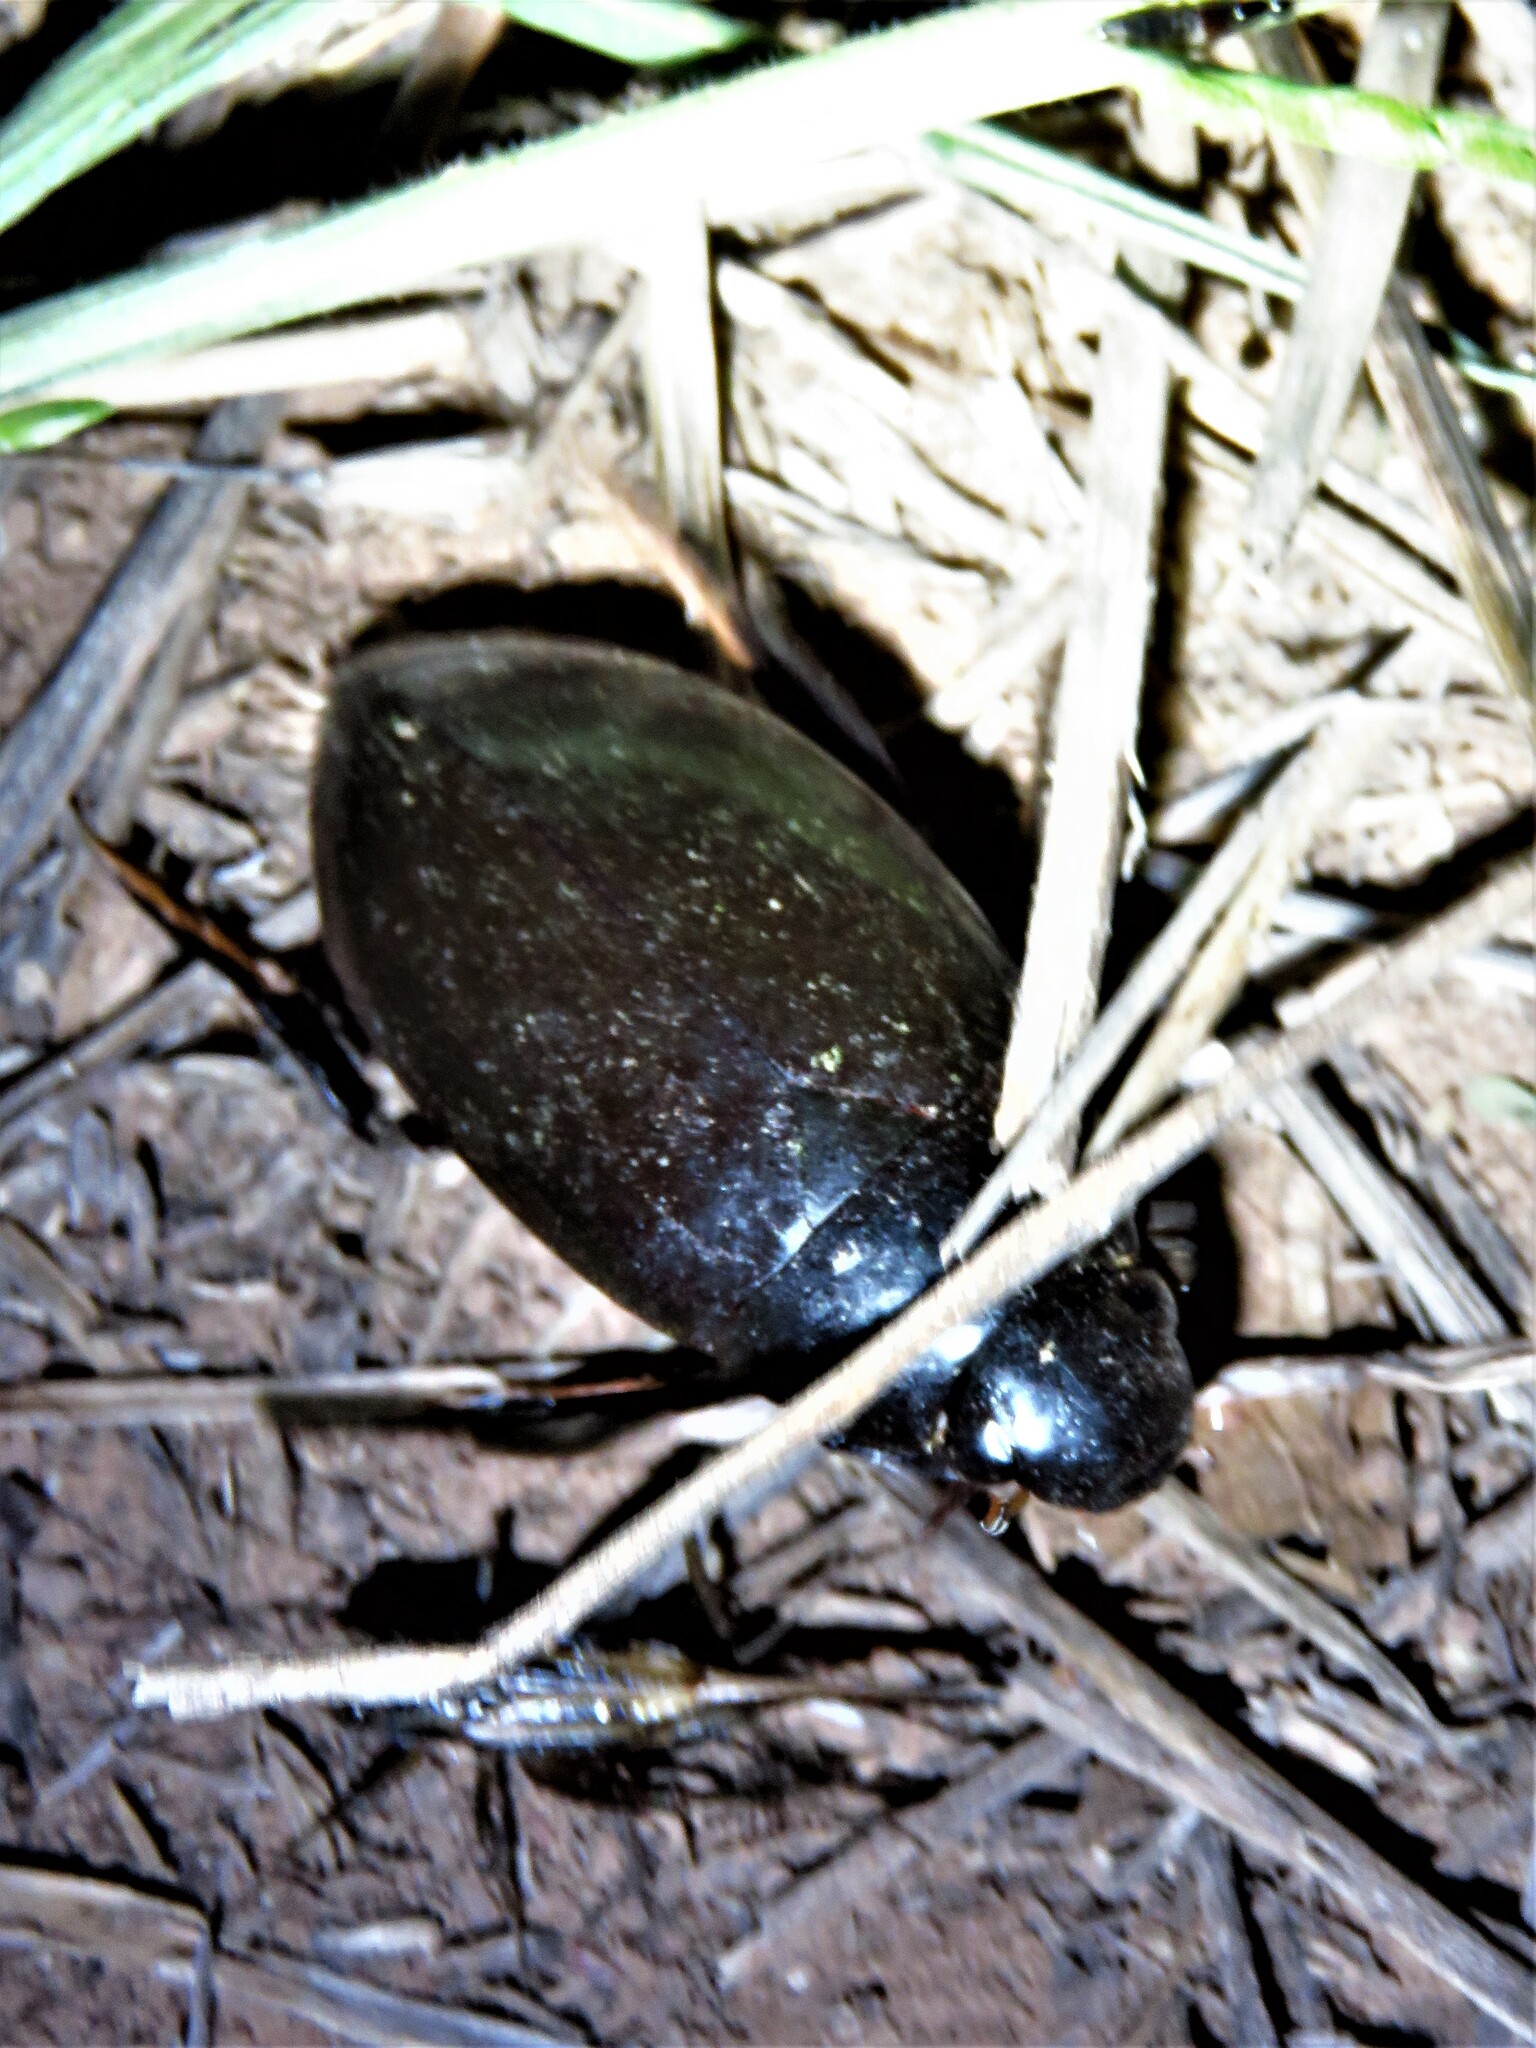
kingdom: Animalia
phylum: Arthropoda
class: Insecta
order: Coleoptera
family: Hydrophilidae
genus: Hydrophilus
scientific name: Hydrophilus
